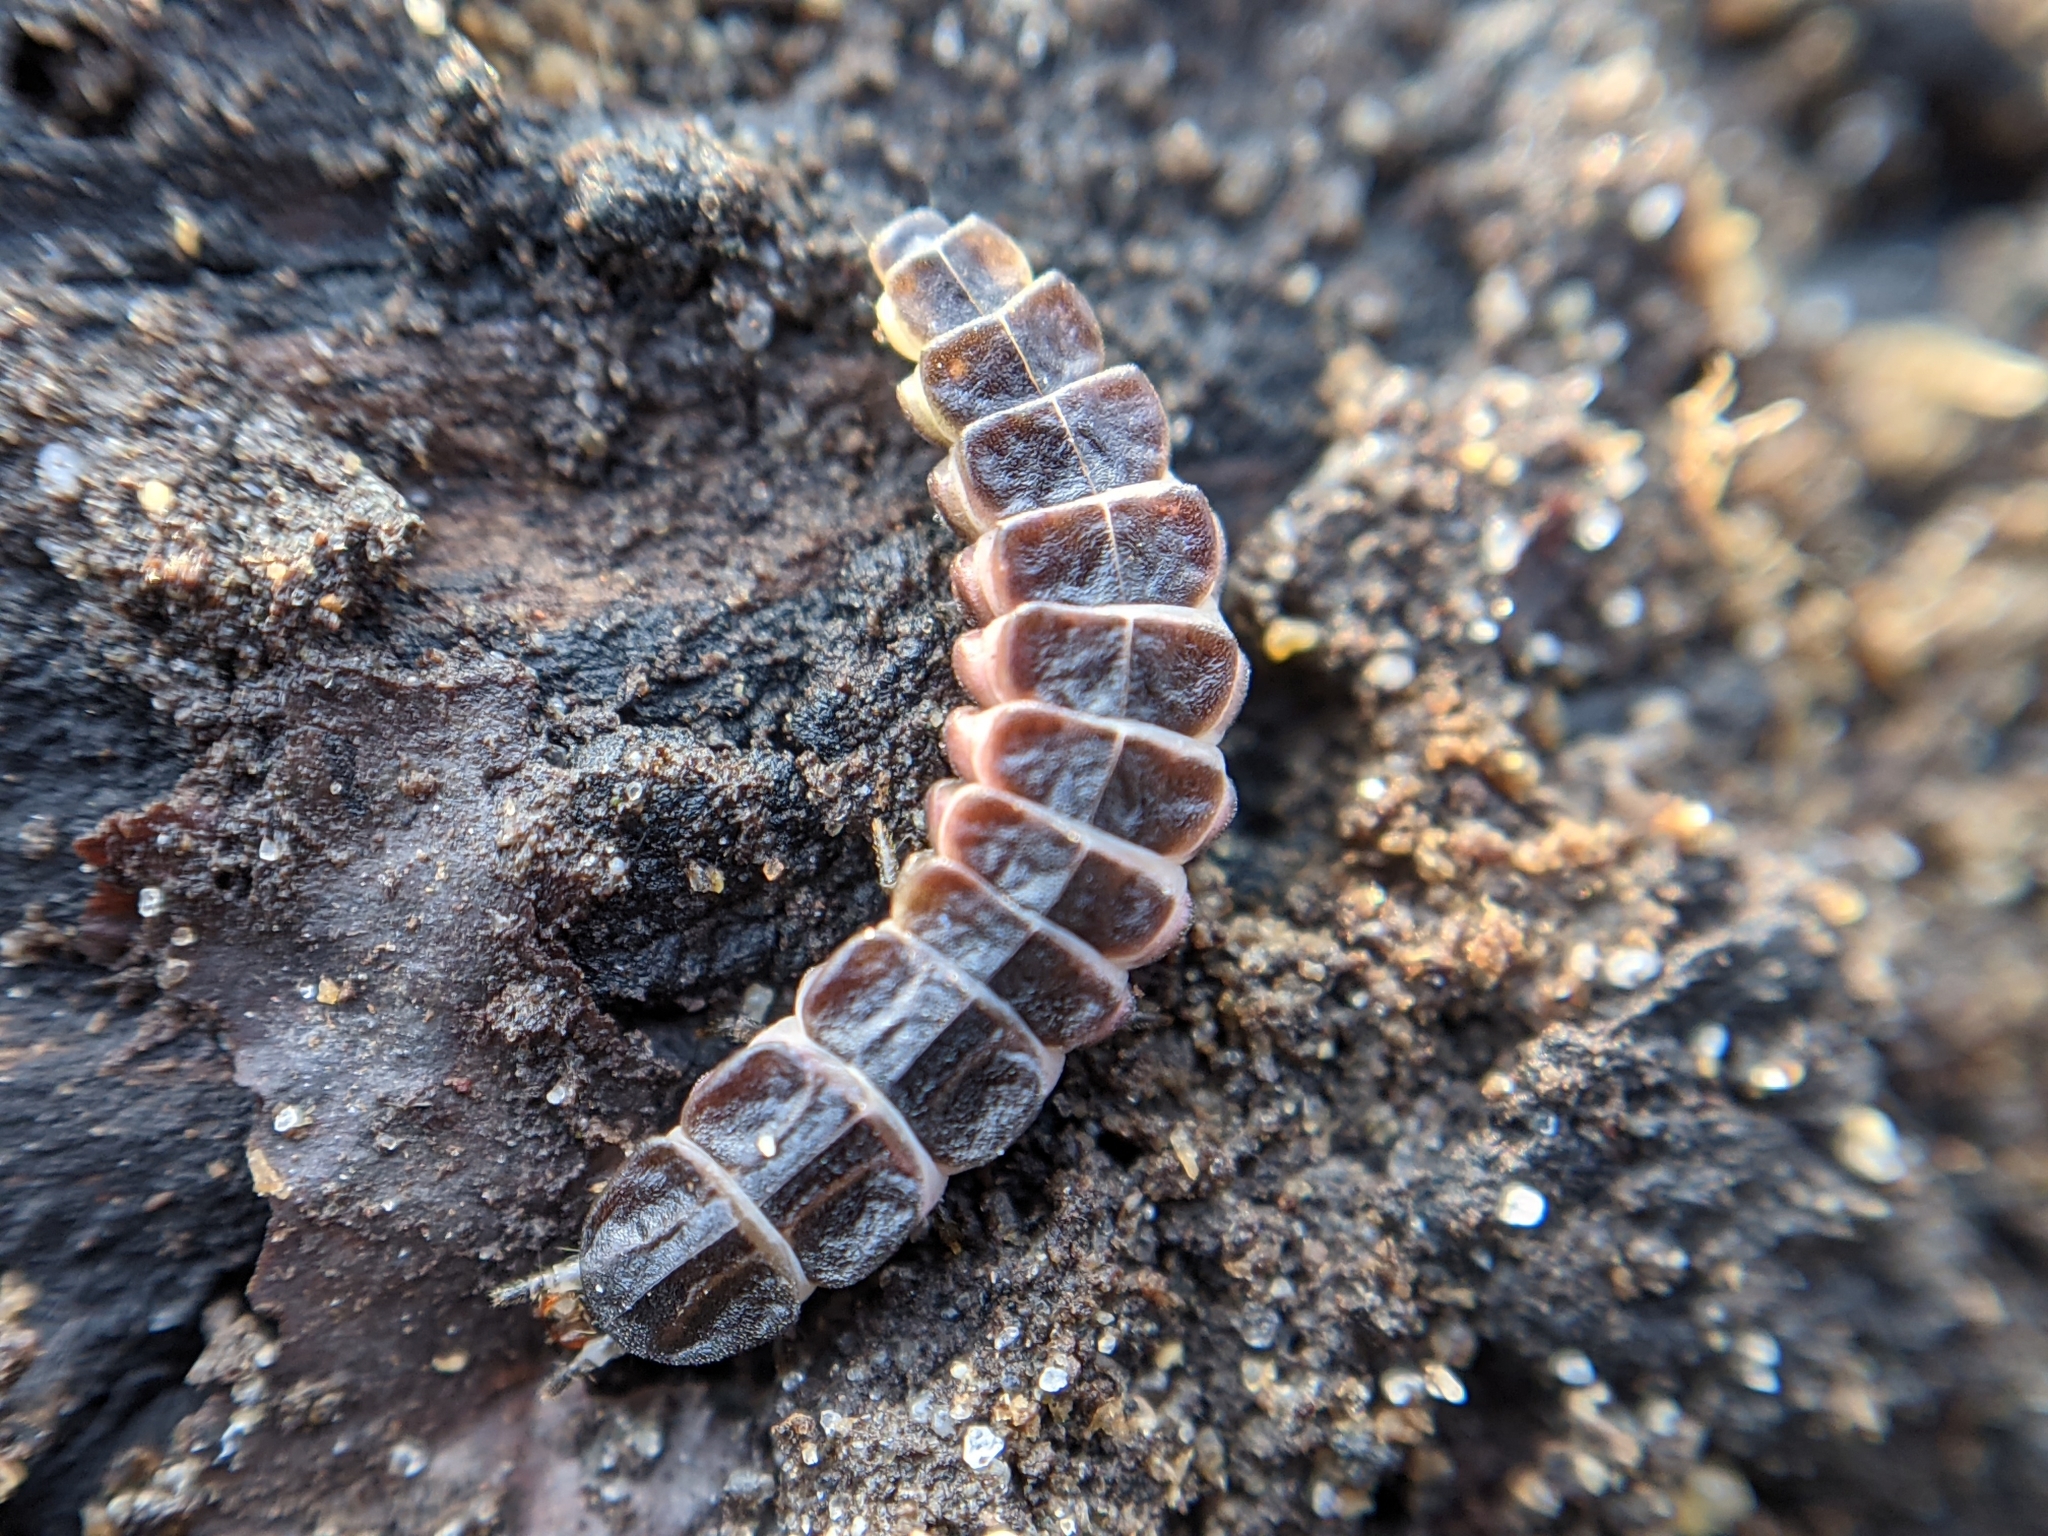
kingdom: Animalia
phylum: Arthropoda
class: Insecta
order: Coleoptera
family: Lampyridae
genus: Phosphaenus
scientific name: Phosphaenus hemipterus
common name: Short-winged firefly
